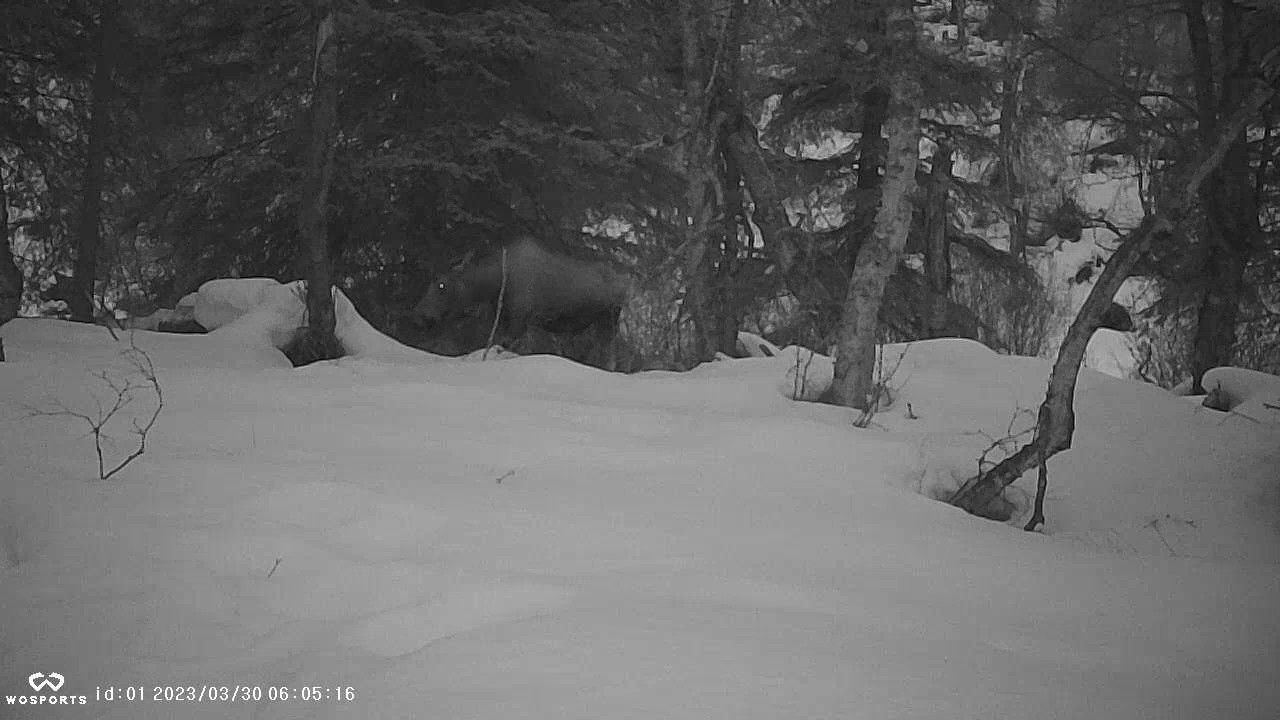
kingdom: Animalia
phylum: Chordata
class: Mammalia
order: Artiodactyla
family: Cervidae
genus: Alces
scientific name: Alces alces
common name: Moose
